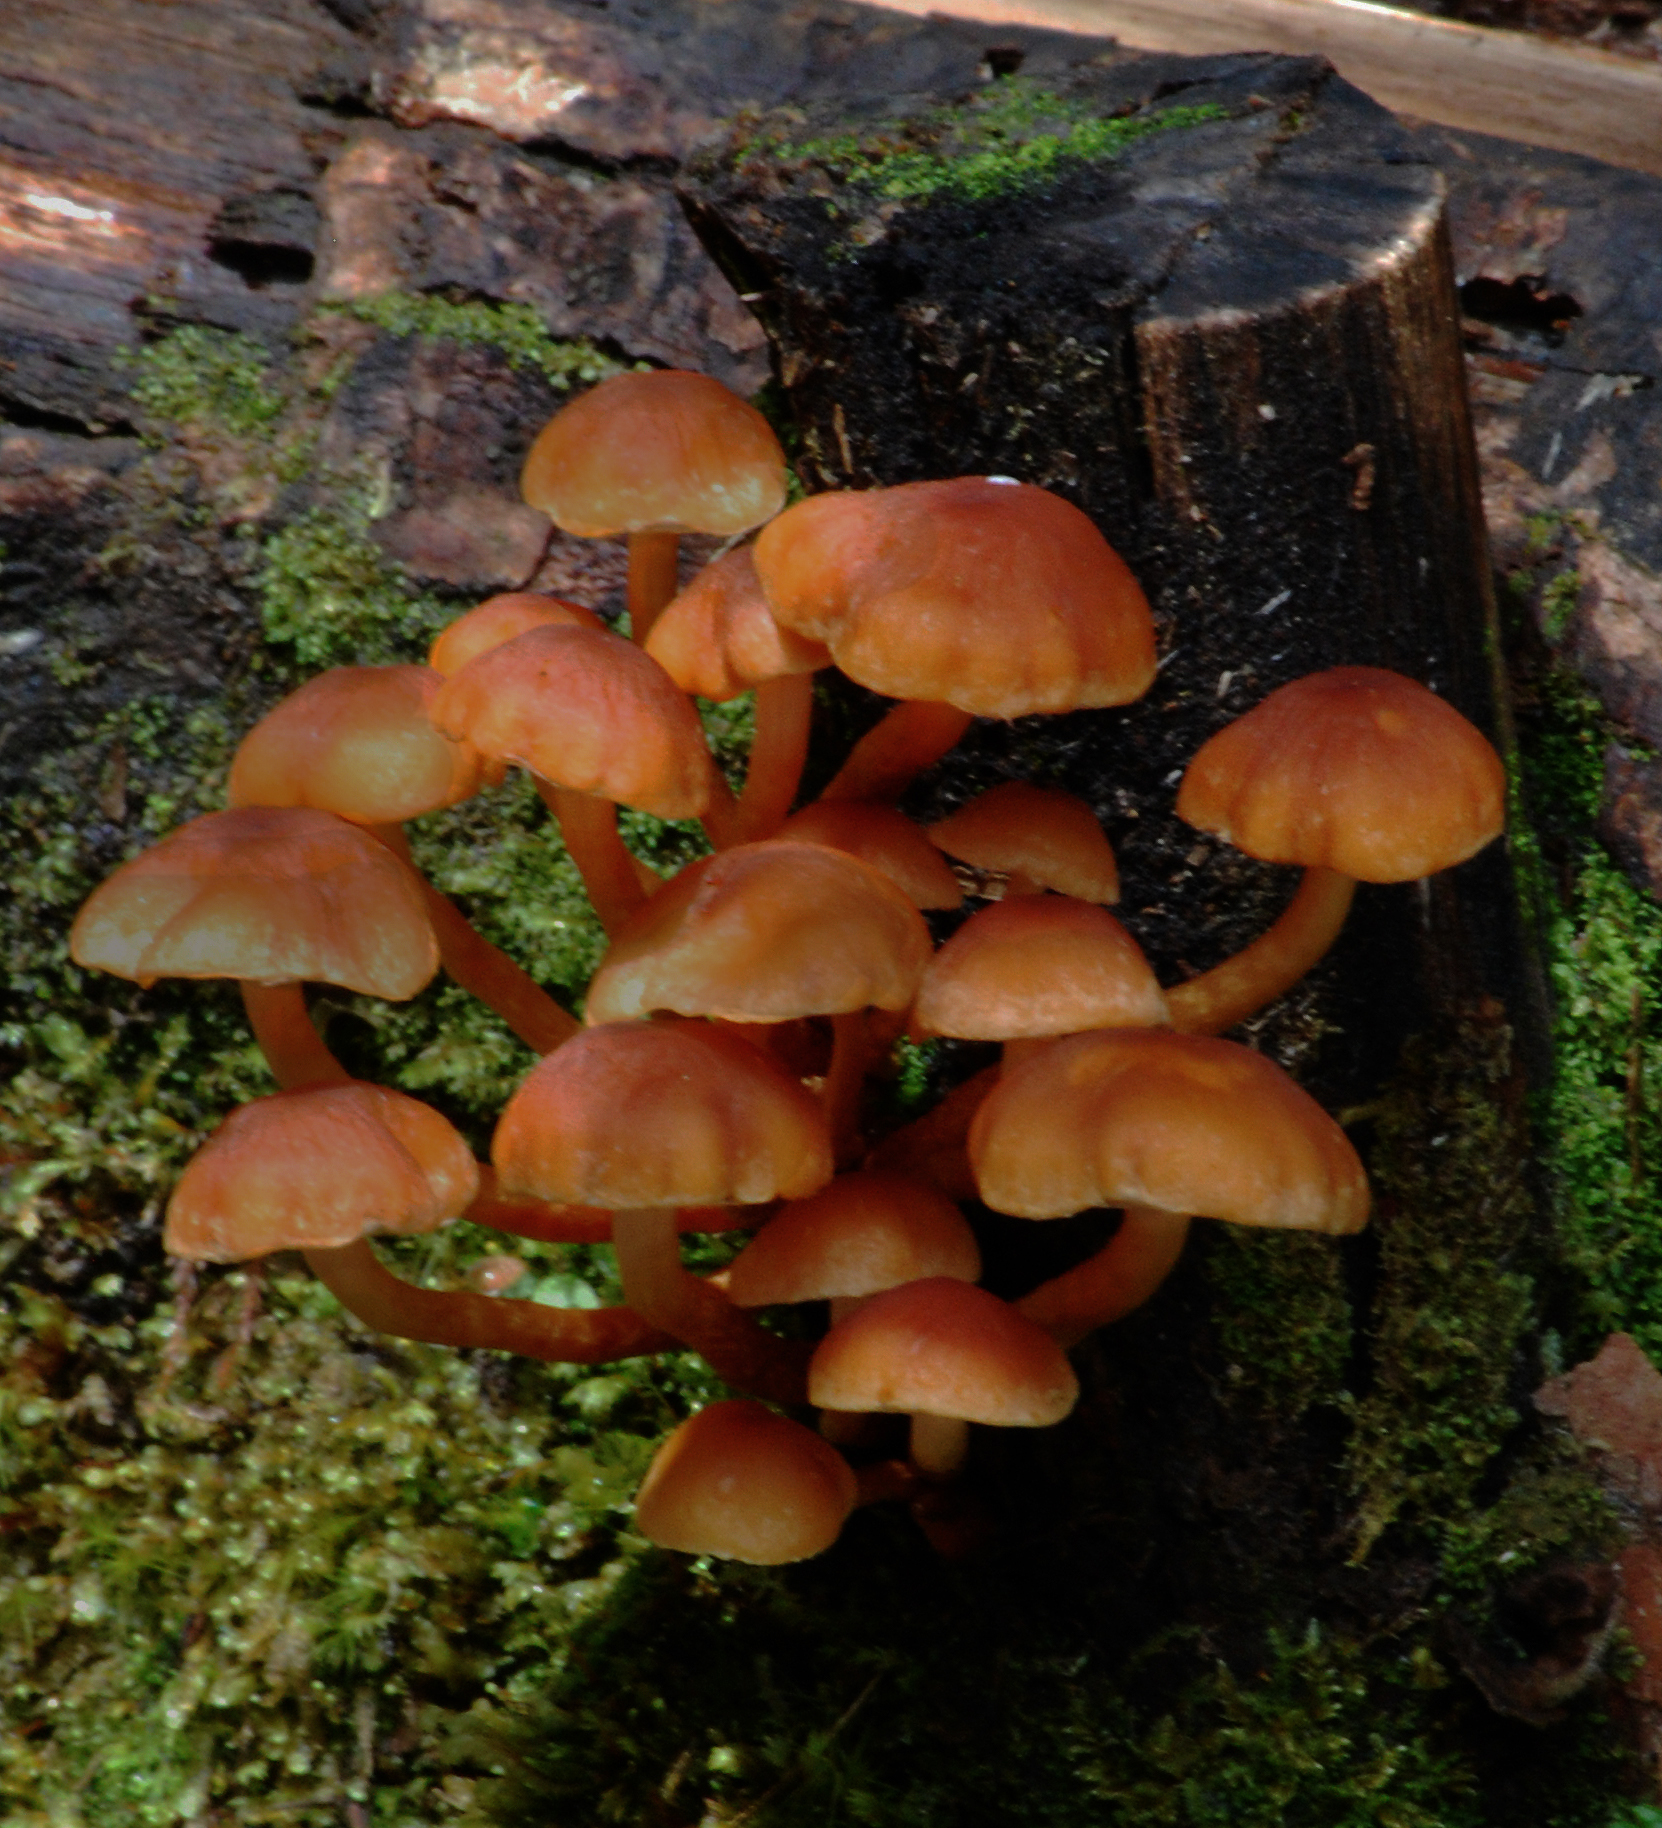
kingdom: Fungi
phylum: Basidiomycota
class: Agaricomycetes
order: Agaricales
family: Mycenaceae
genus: Mycena
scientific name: Mycena leaiana
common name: Orange mycena
